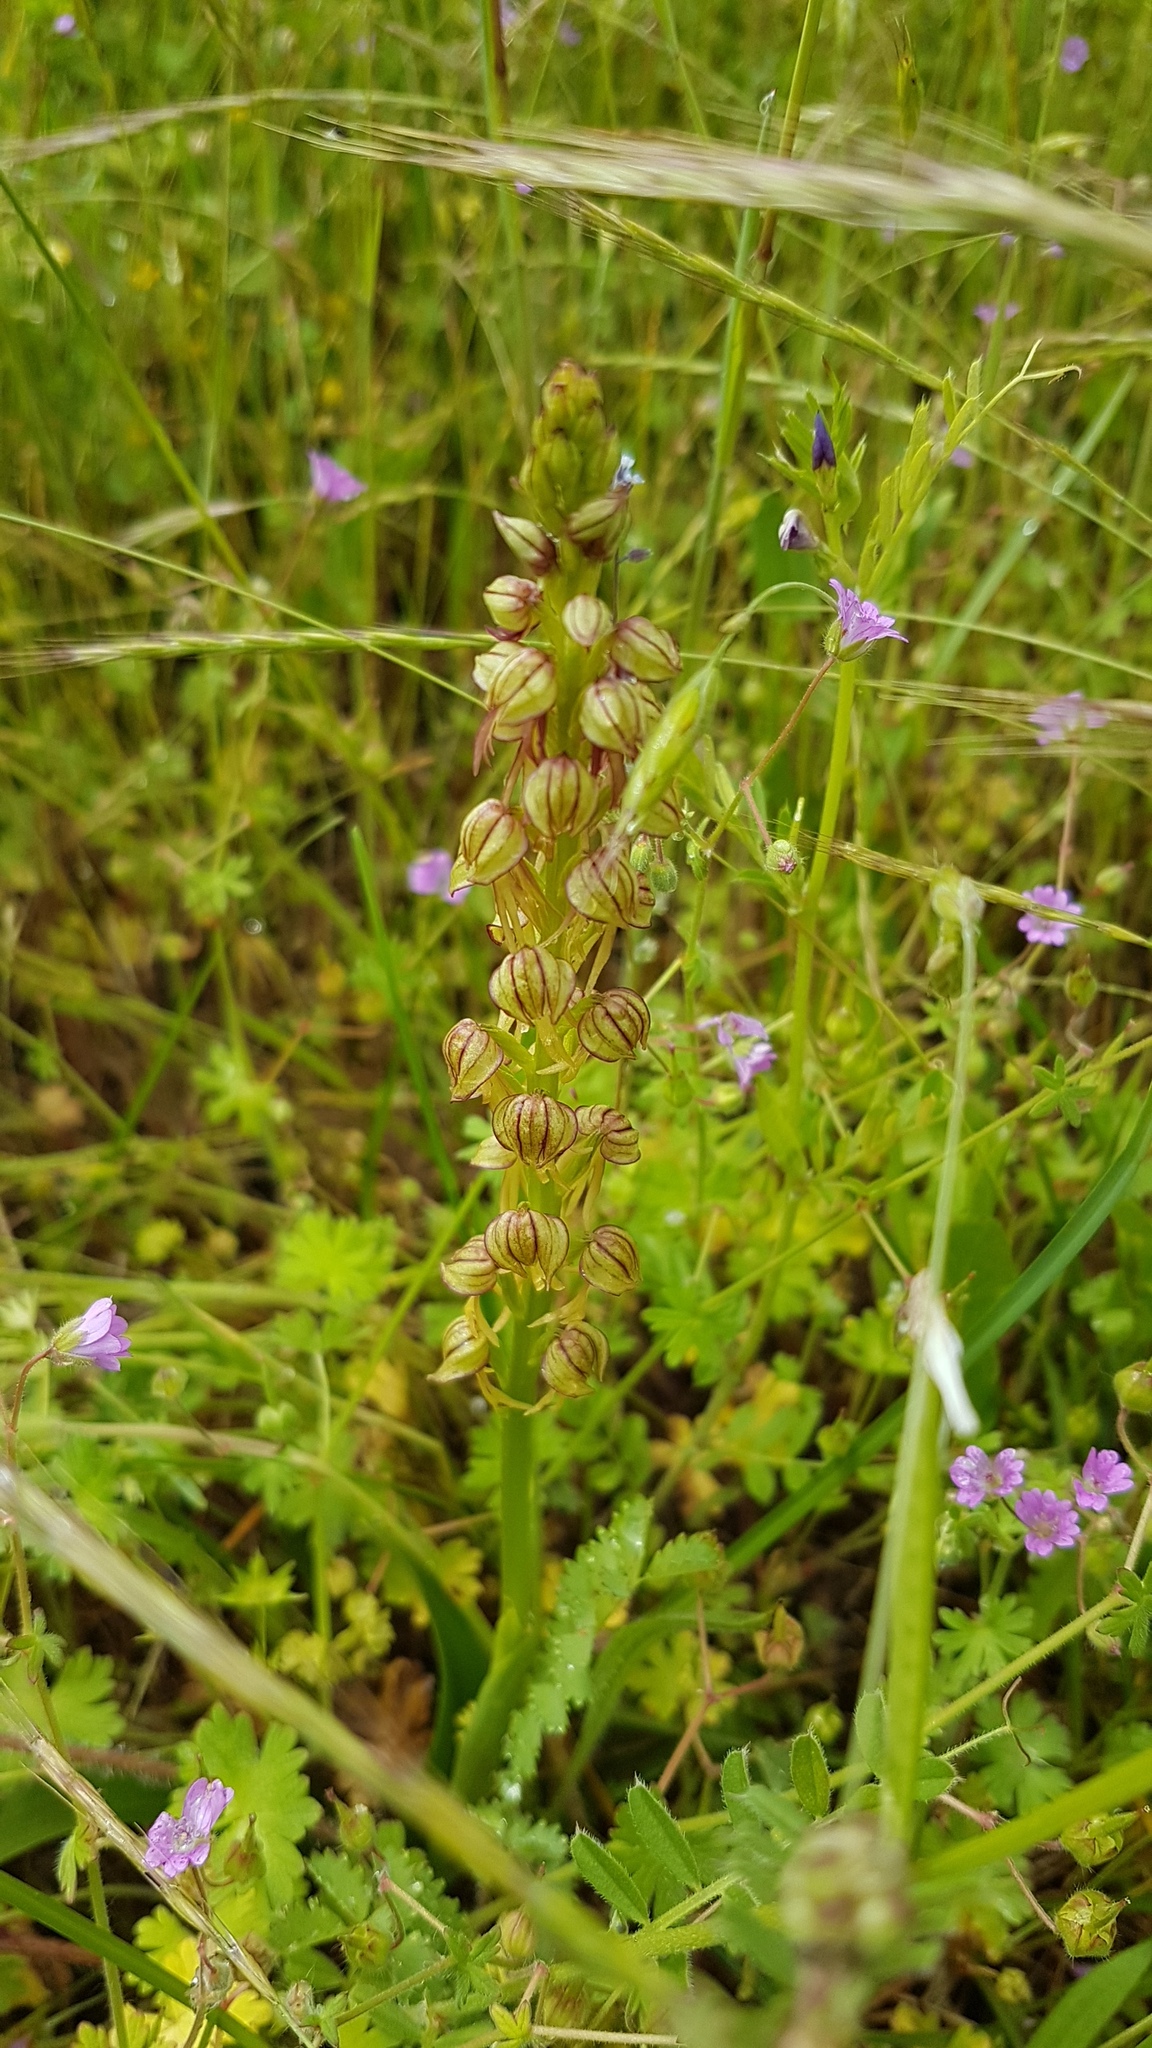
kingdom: Plantae
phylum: Tracheophyta
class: Liliopsida
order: Asparagales
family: Orchidaceae
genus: Orchis
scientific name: Orchis anthropophora
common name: Man orchid
